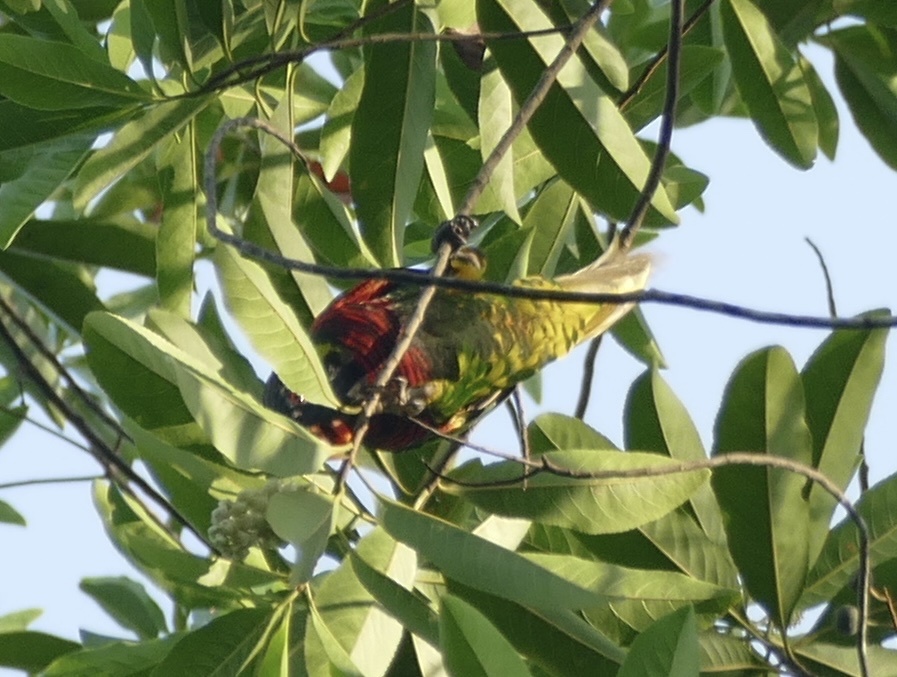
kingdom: Animalia
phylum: Chordata
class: Aves
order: Psittaciformes
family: Psittacidae
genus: Trichoglossus
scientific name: Trichoglossus haematodus
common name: Coconut lorikeet
